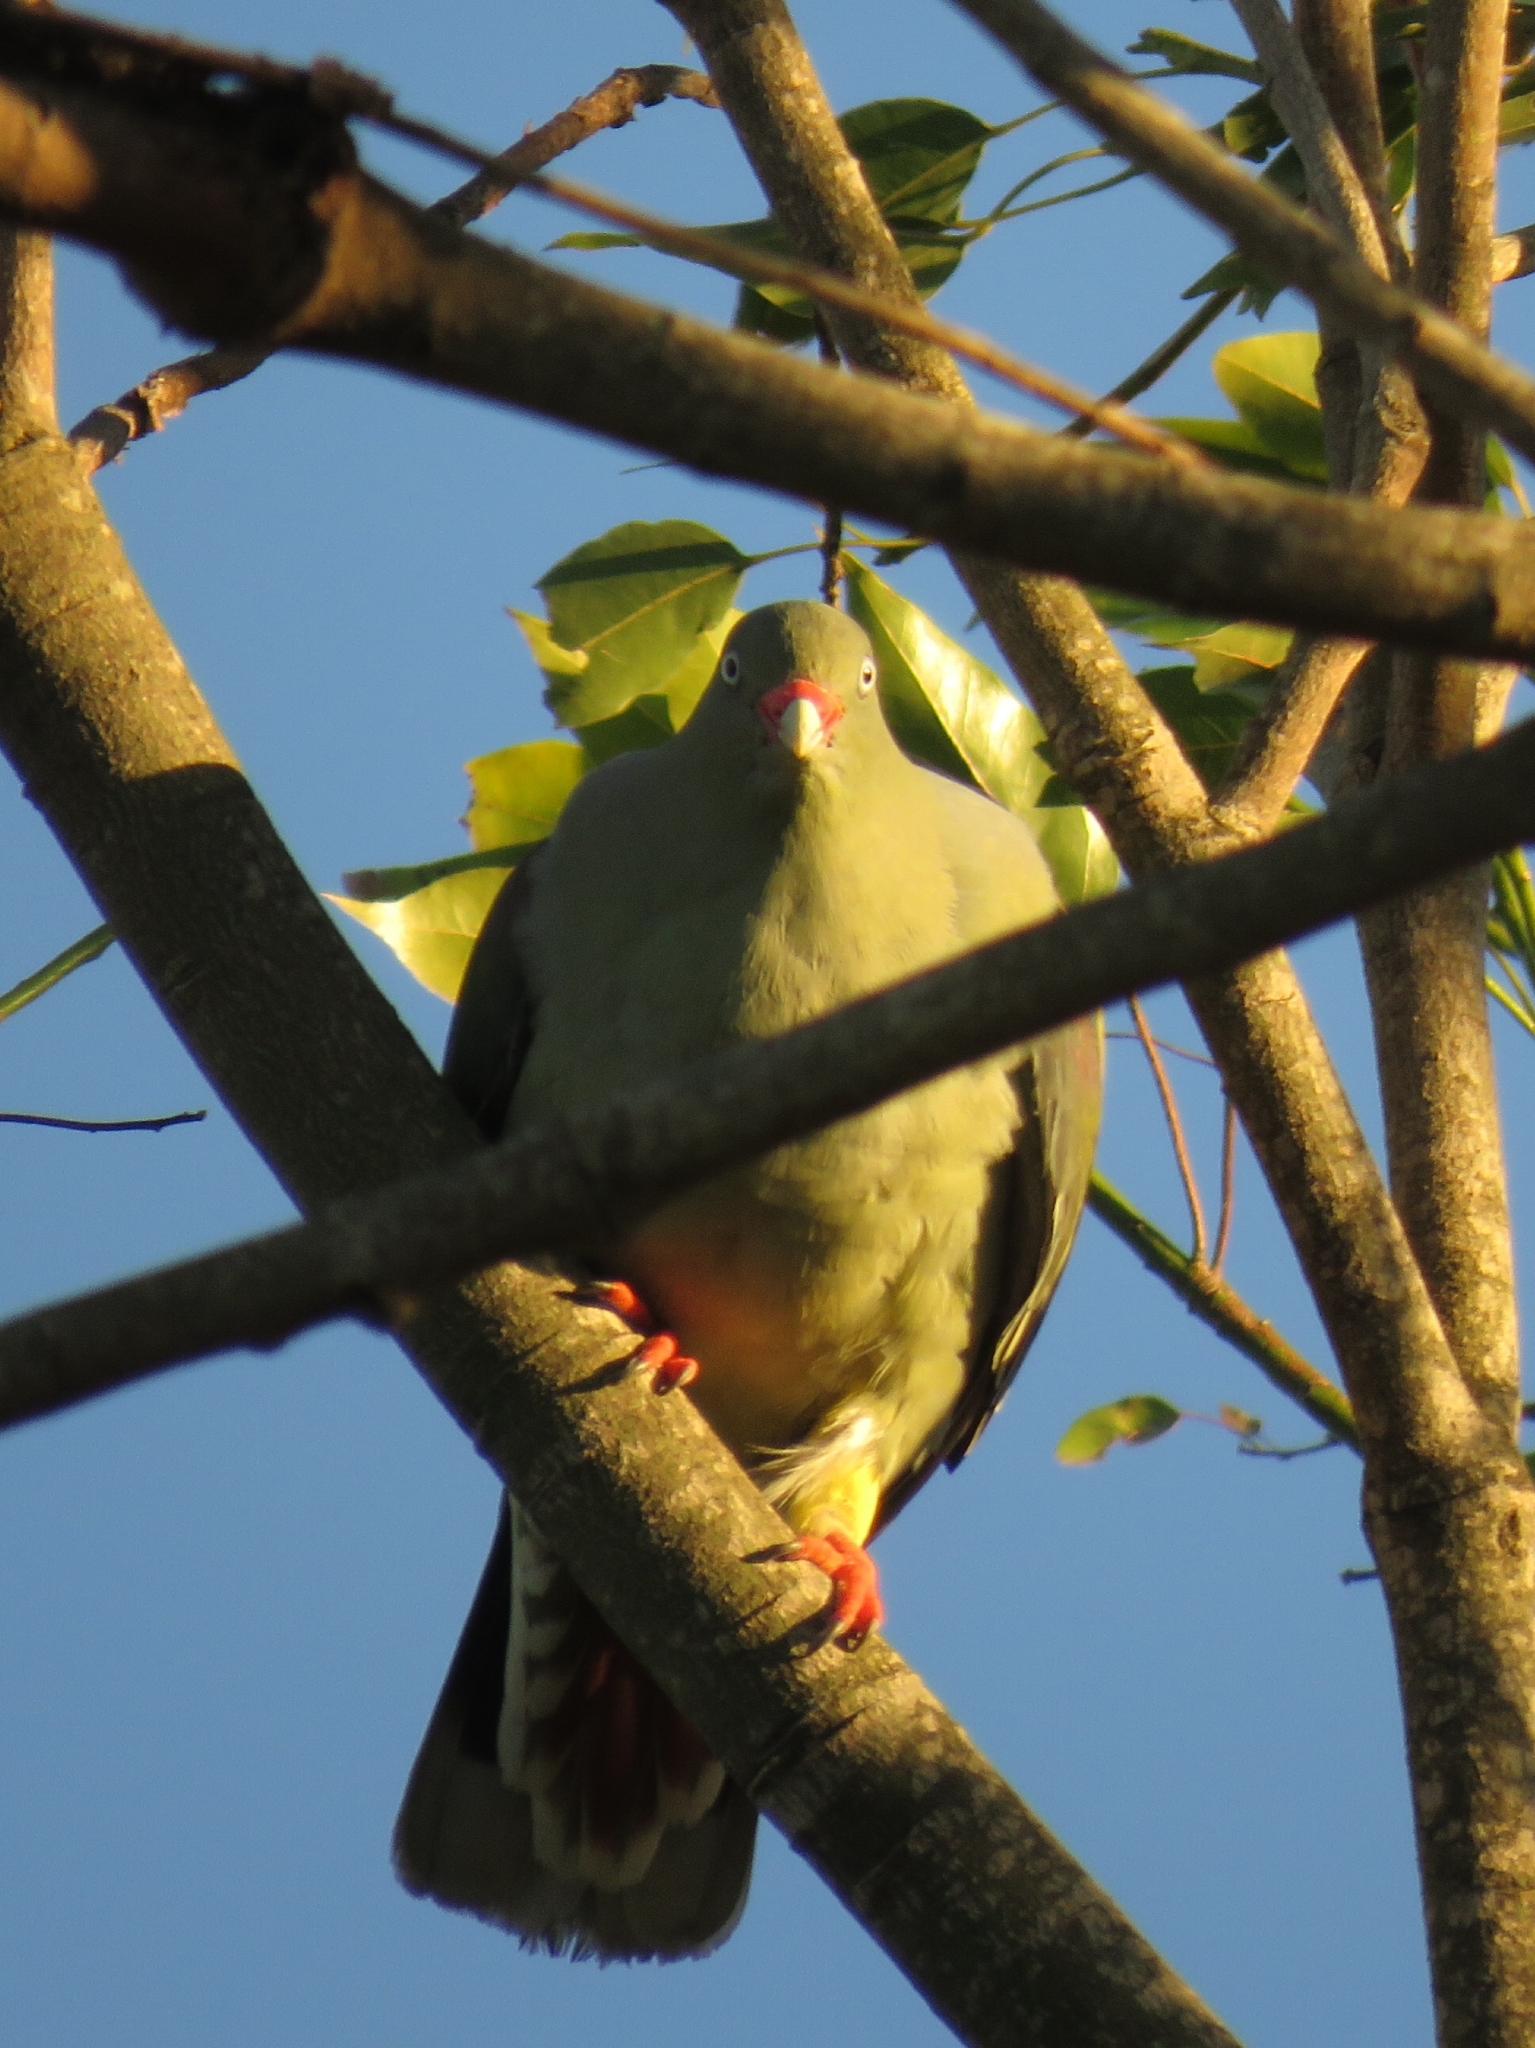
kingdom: Animalia
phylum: Chordata
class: Aves
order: Columbiformes
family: Columbidae
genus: Treron
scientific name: Treron calvus
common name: African green pigeon
